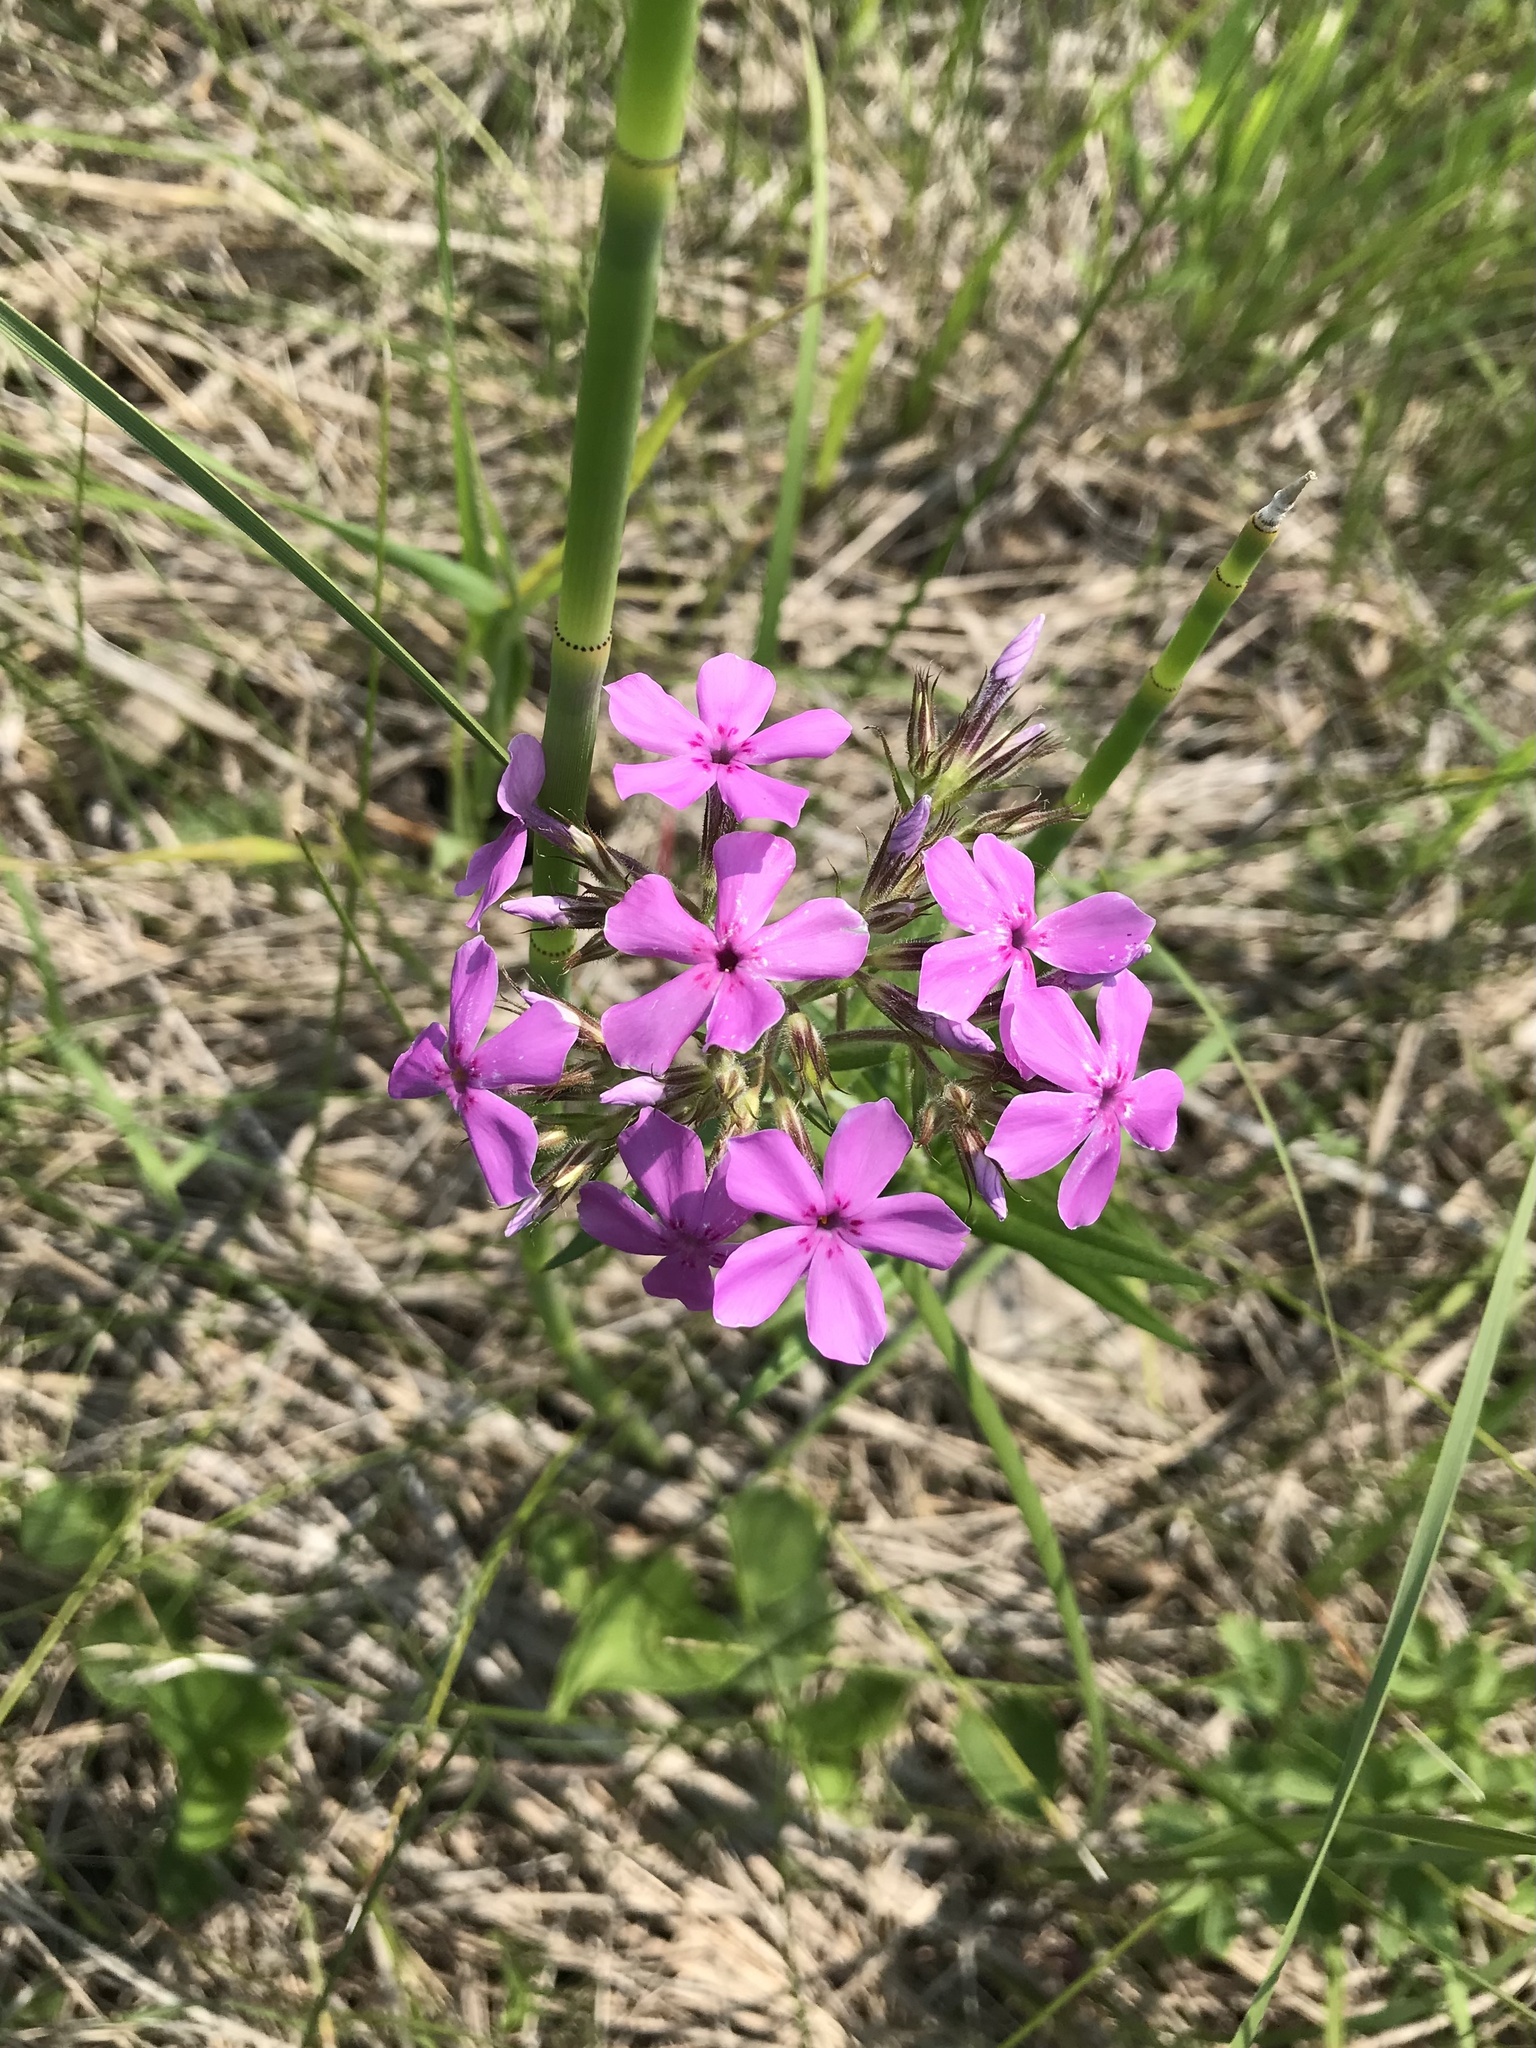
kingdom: Plantae
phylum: Tracheophyta
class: Magnoliopsida
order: Ericales
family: Polemoniaceae
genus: Phlox
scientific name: Phlox pilosa
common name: Prairie phlox
